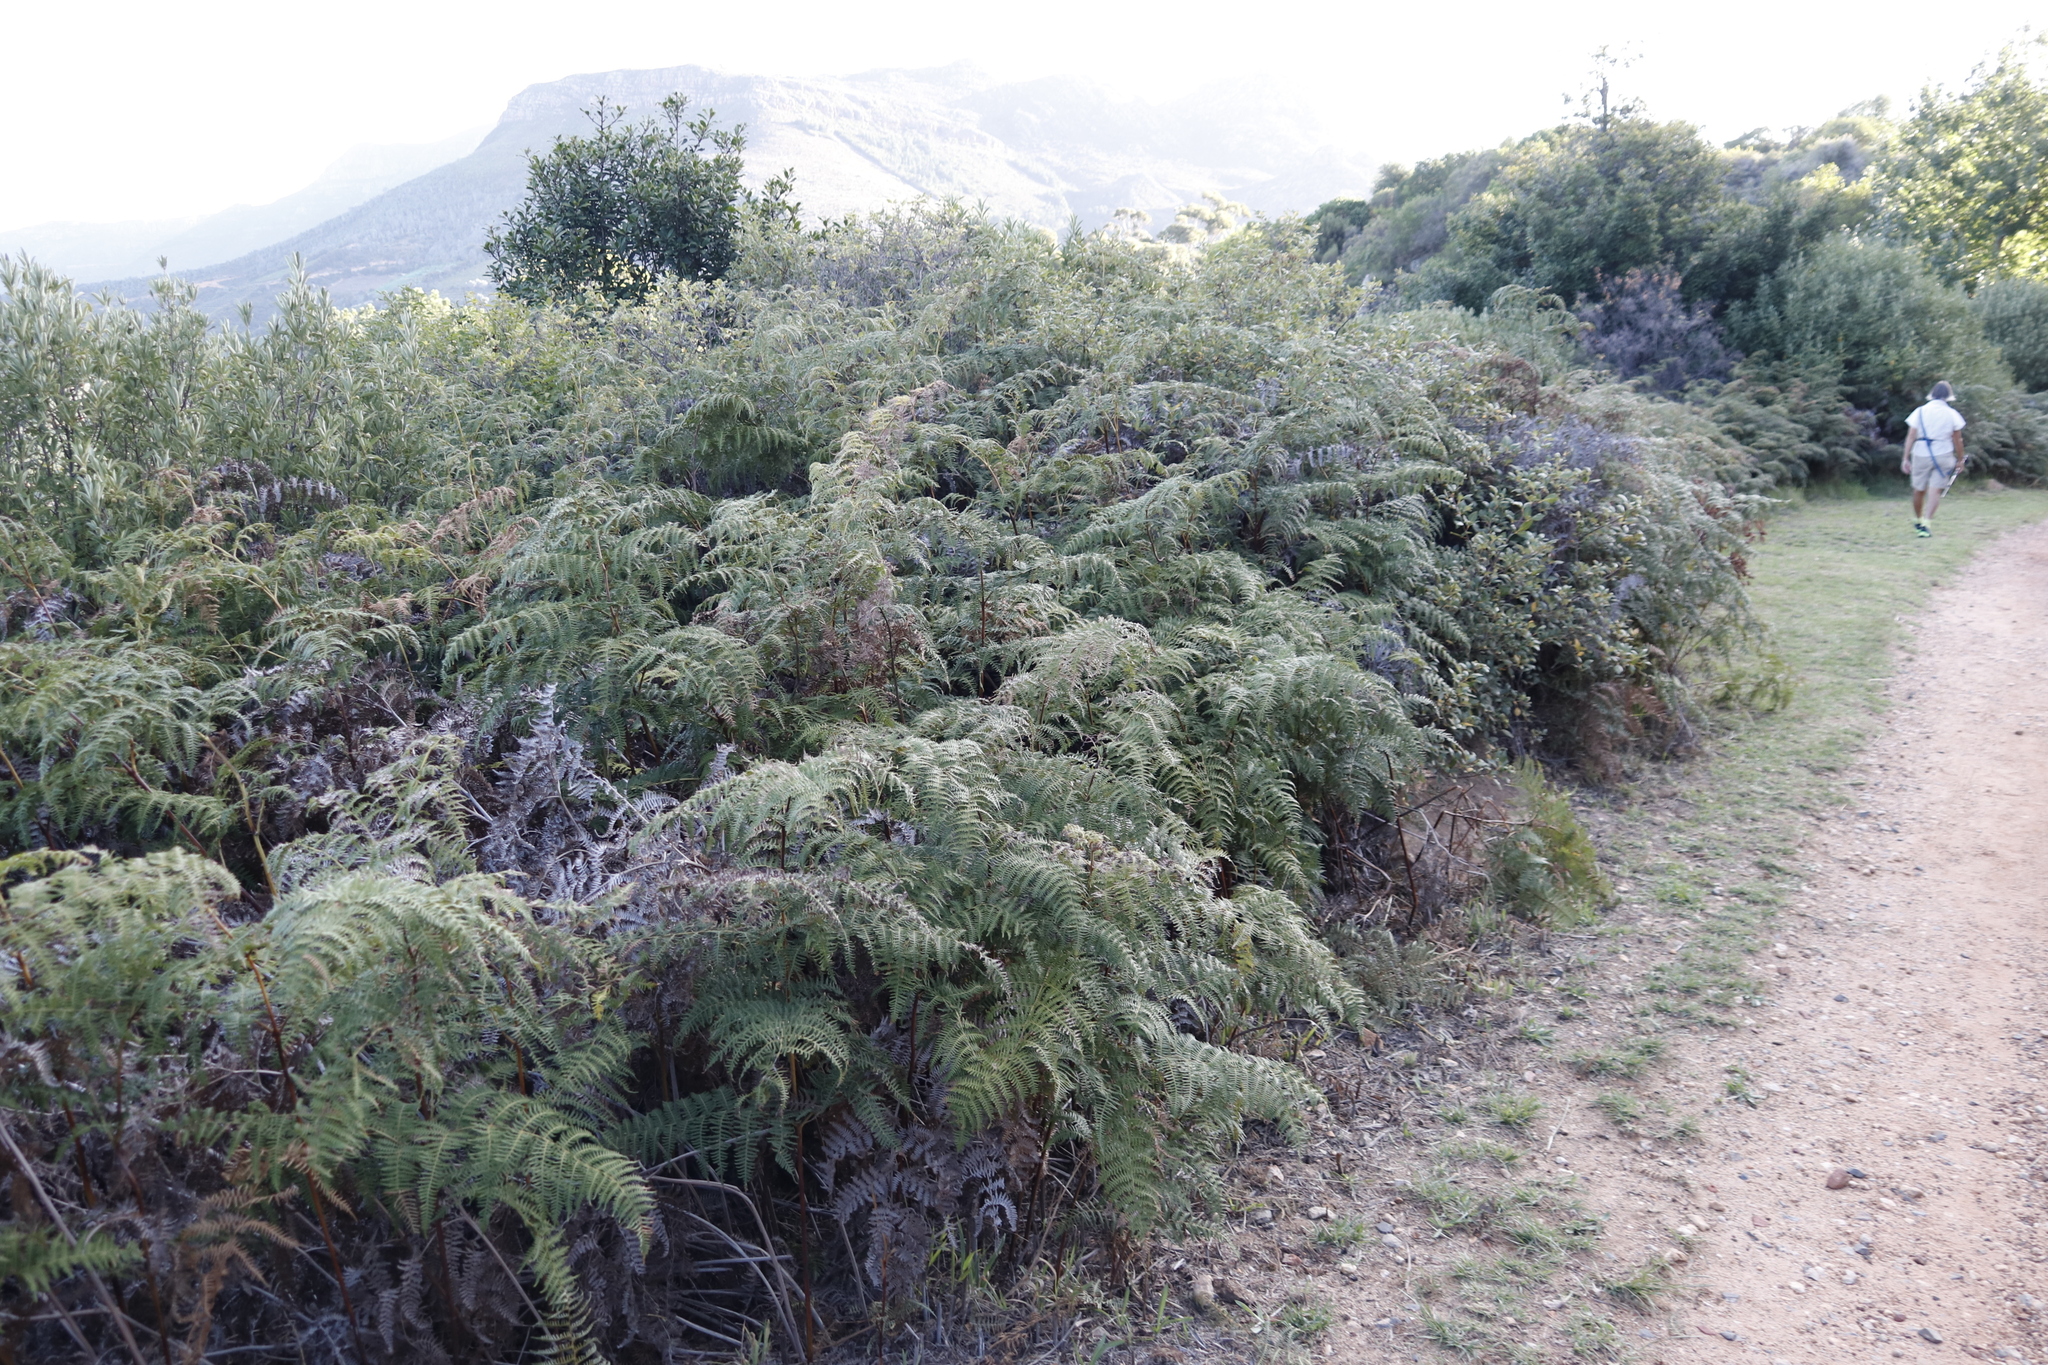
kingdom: Plantae
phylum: Tracheophyta
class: Polypodiopsida
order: Polypodiales
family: Dennstaedtiaceae
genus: Pteridium
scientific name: Pteridium aquilinum
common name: Bracken
